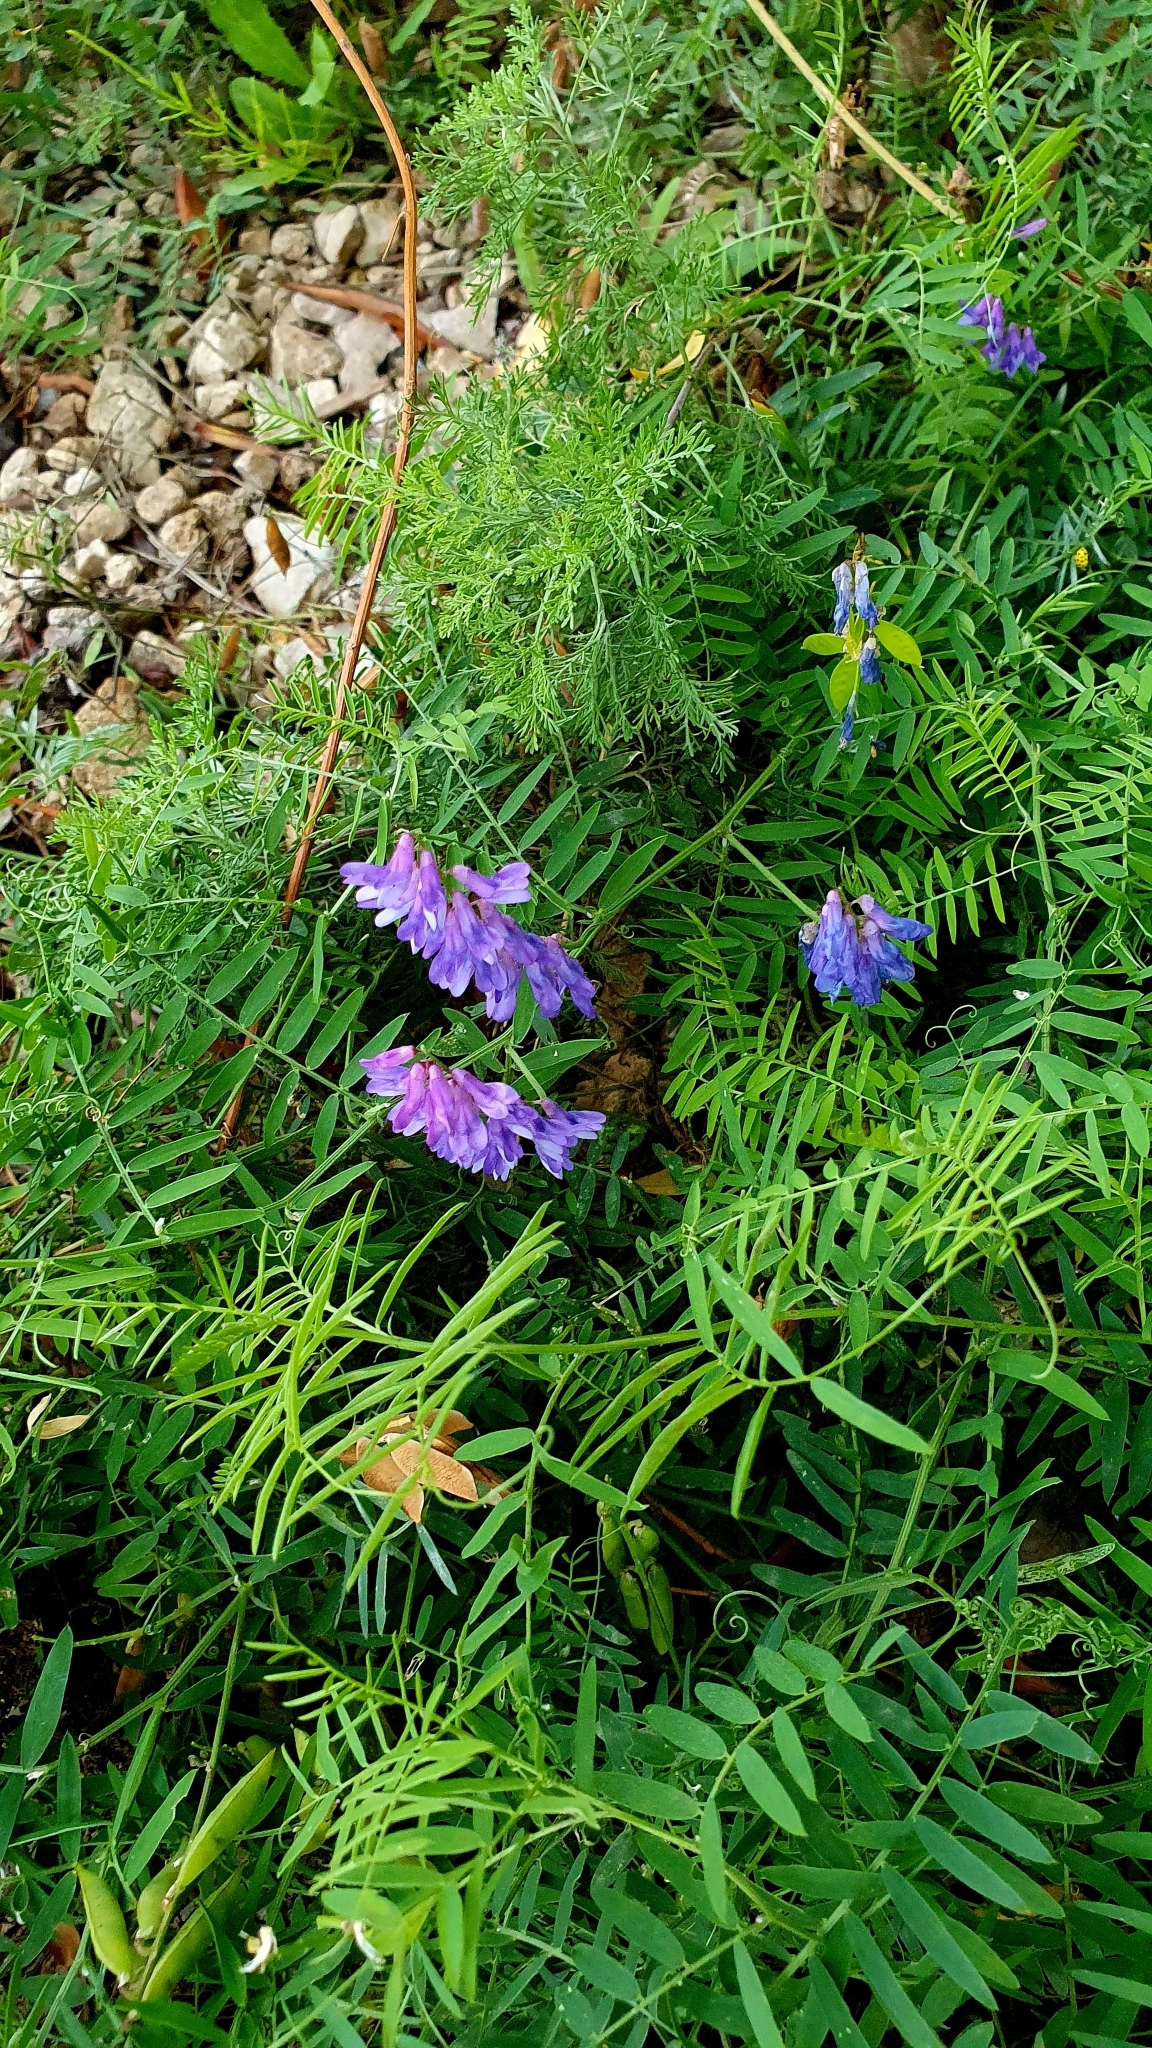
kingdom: Plantae
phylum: Tracheophyta
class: Magnoliopsida
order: Fabales
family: Fabaceae
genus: Vicia
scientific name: Vicia cracca
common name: Bird vetch
